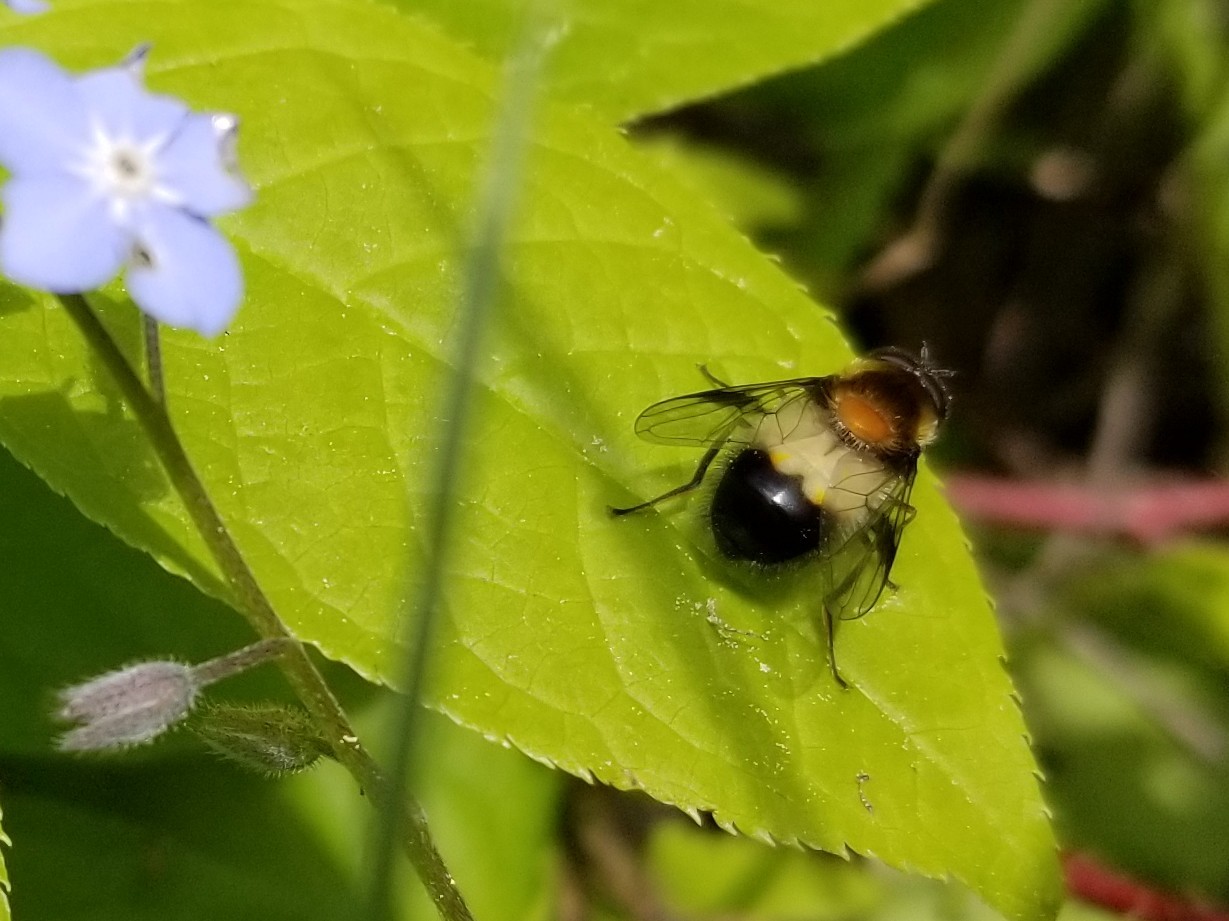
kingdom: Animalia
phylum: Arthropoda
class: Insecta
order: Diptera
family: Syrphidae
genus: Leucozona
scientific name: Leucozona americana
